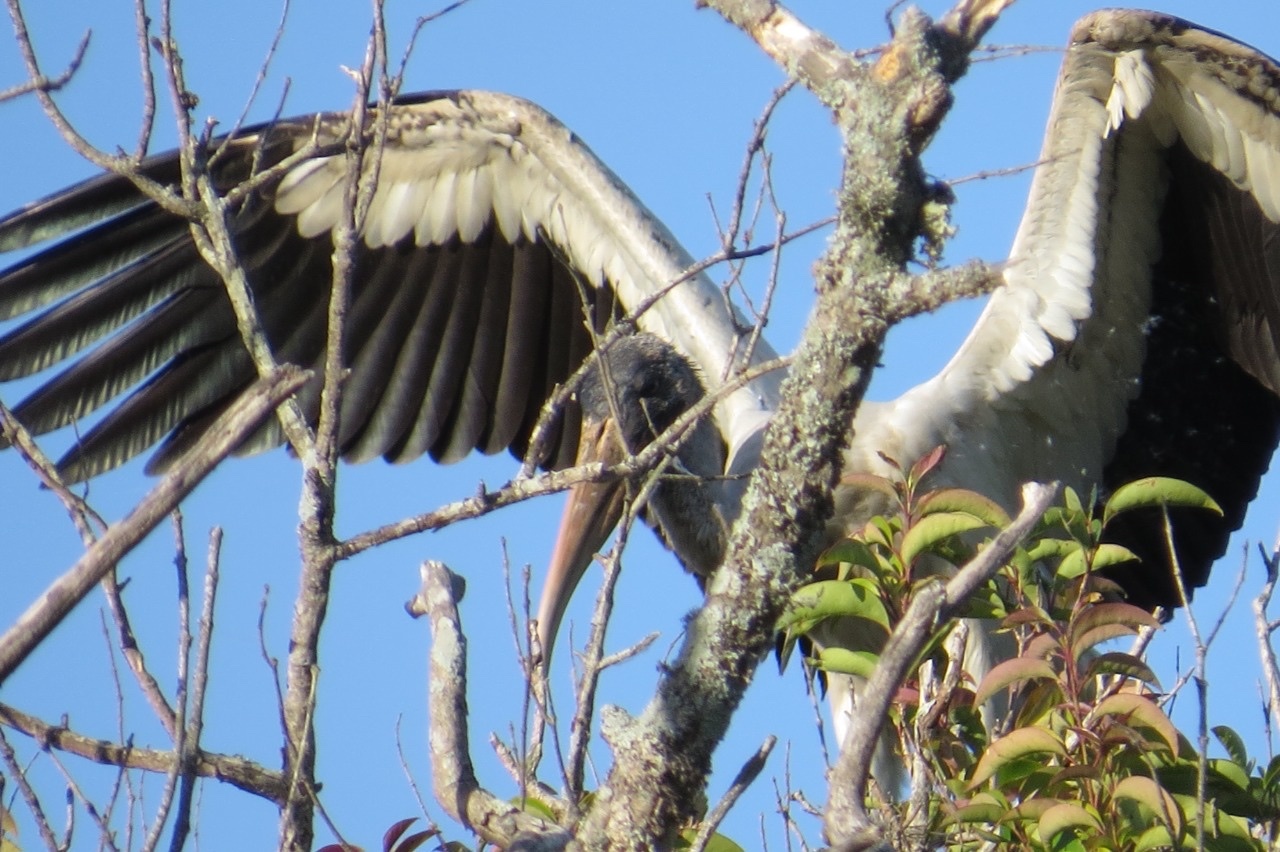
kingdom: Animalia
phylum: Chordata
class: Aves
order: Ciconiiformes
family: Ciconiidae
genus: Mycteria
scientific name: Mycteria americana
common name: Wood stork
